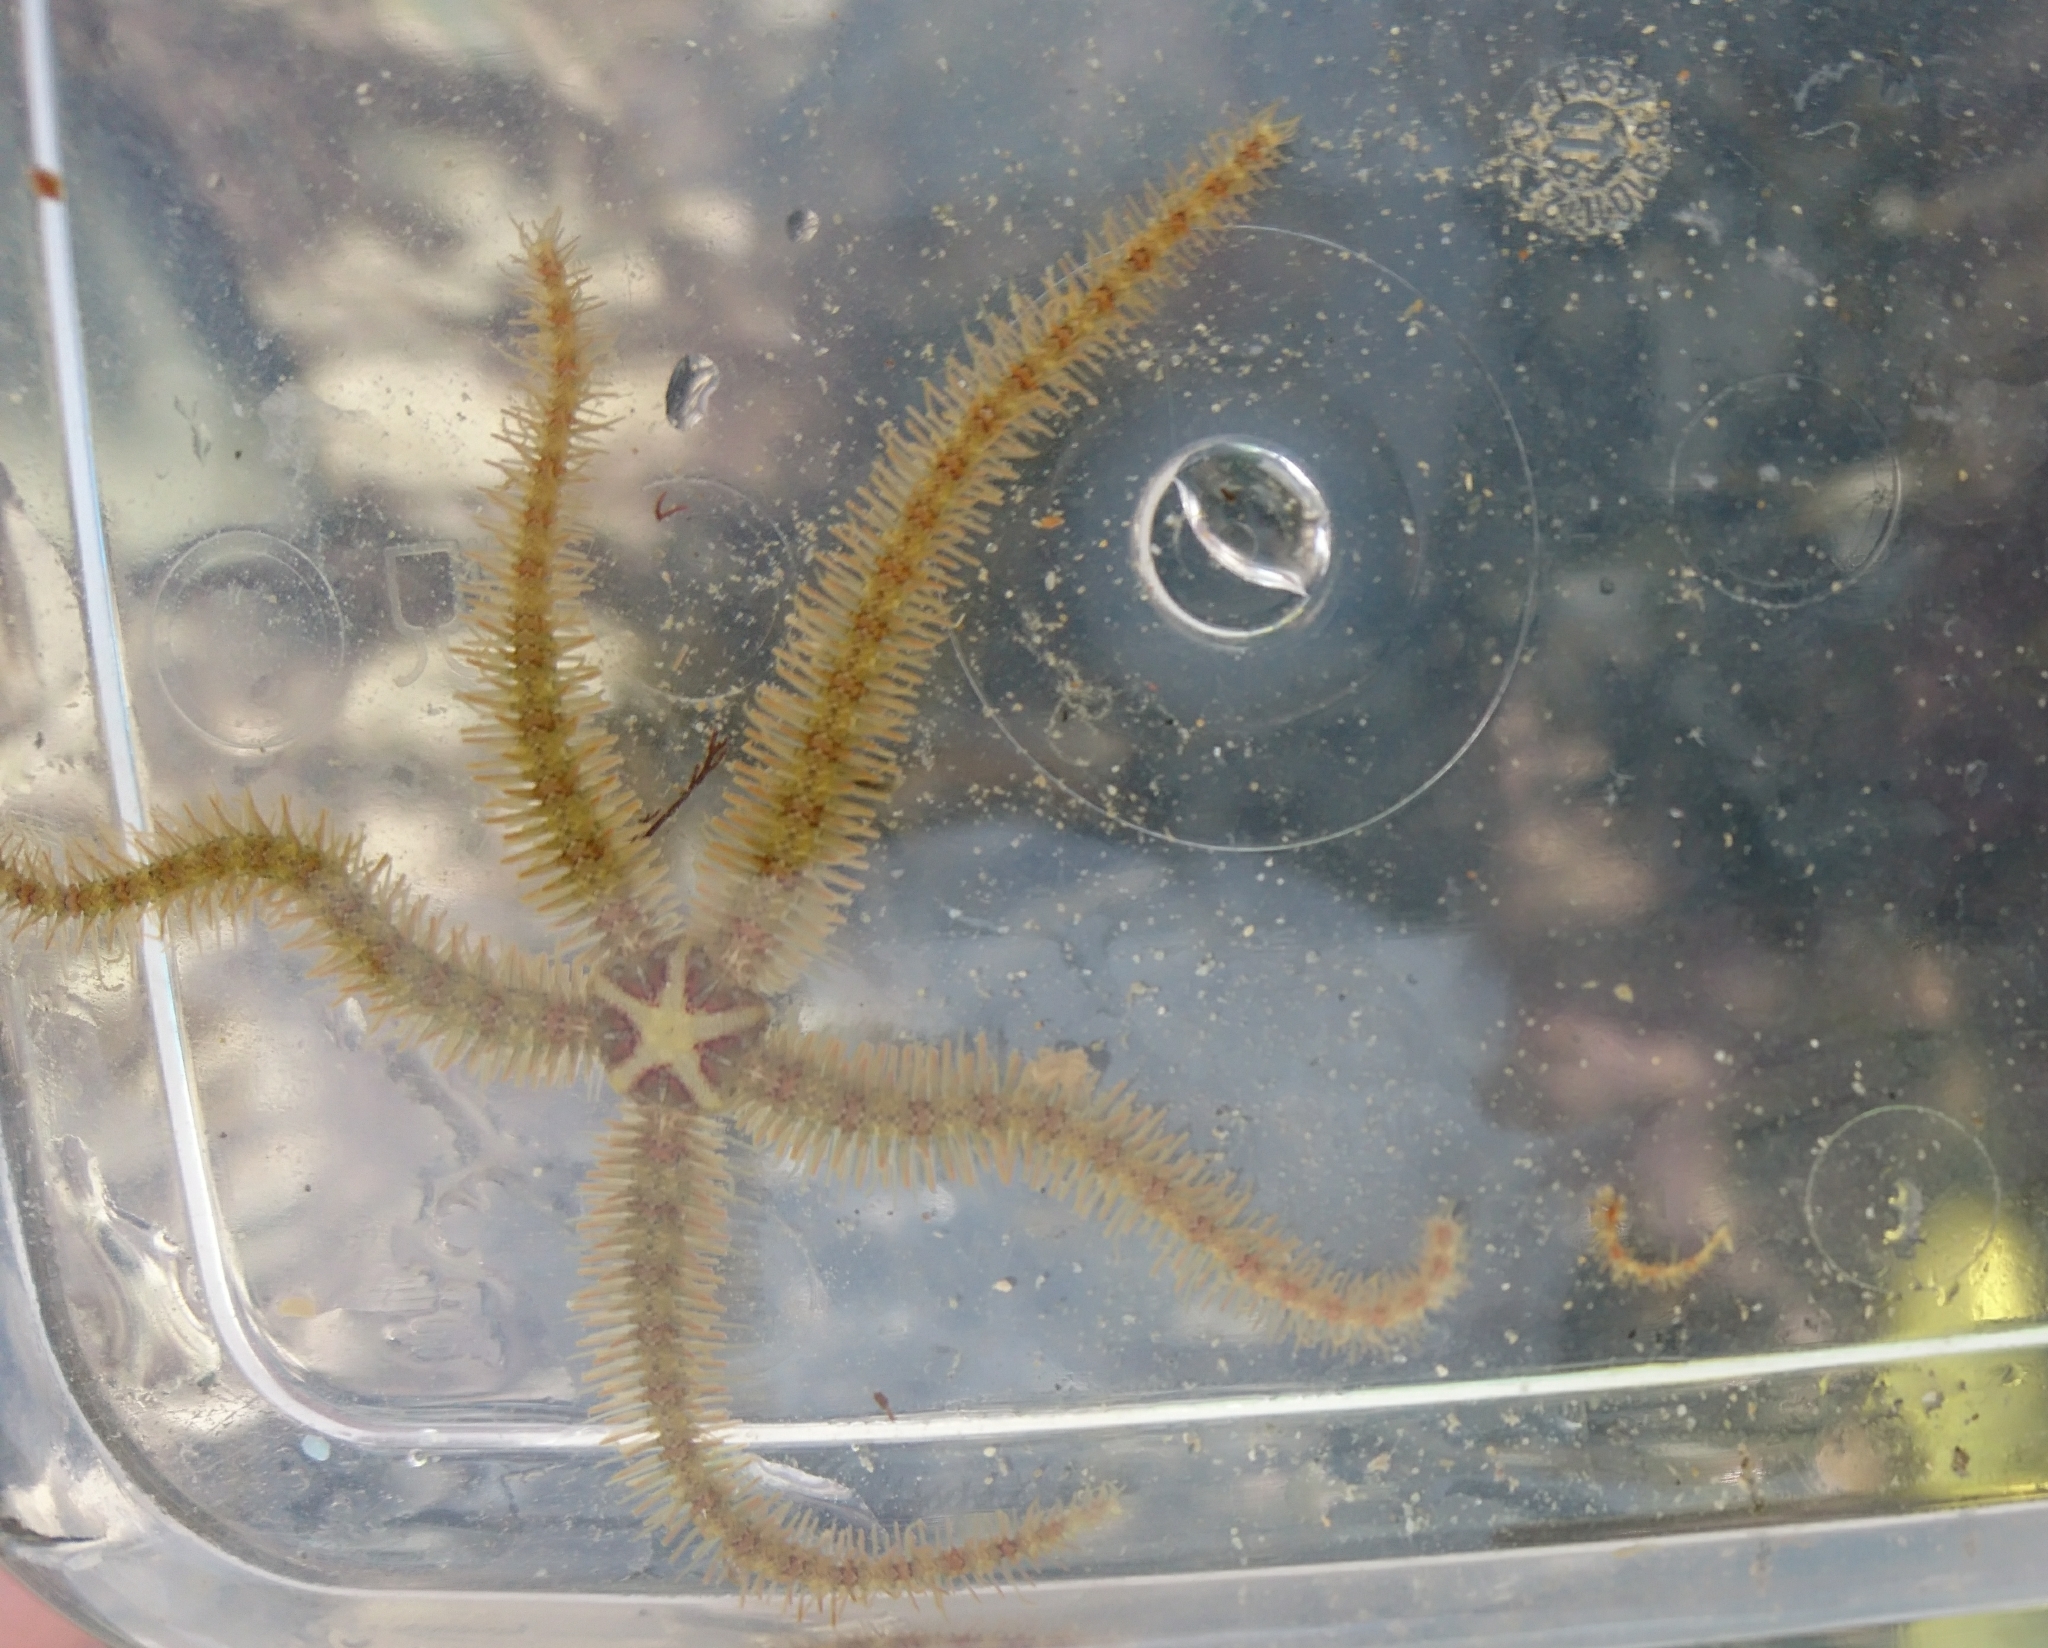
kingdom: Animalia
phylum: Echinodermata
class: Ophiuroidea
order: Amphilepidida
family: Ophiotrichidae
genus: Ophiothrix
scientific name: Ophiothrix fragilis
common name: Common brittlestar
